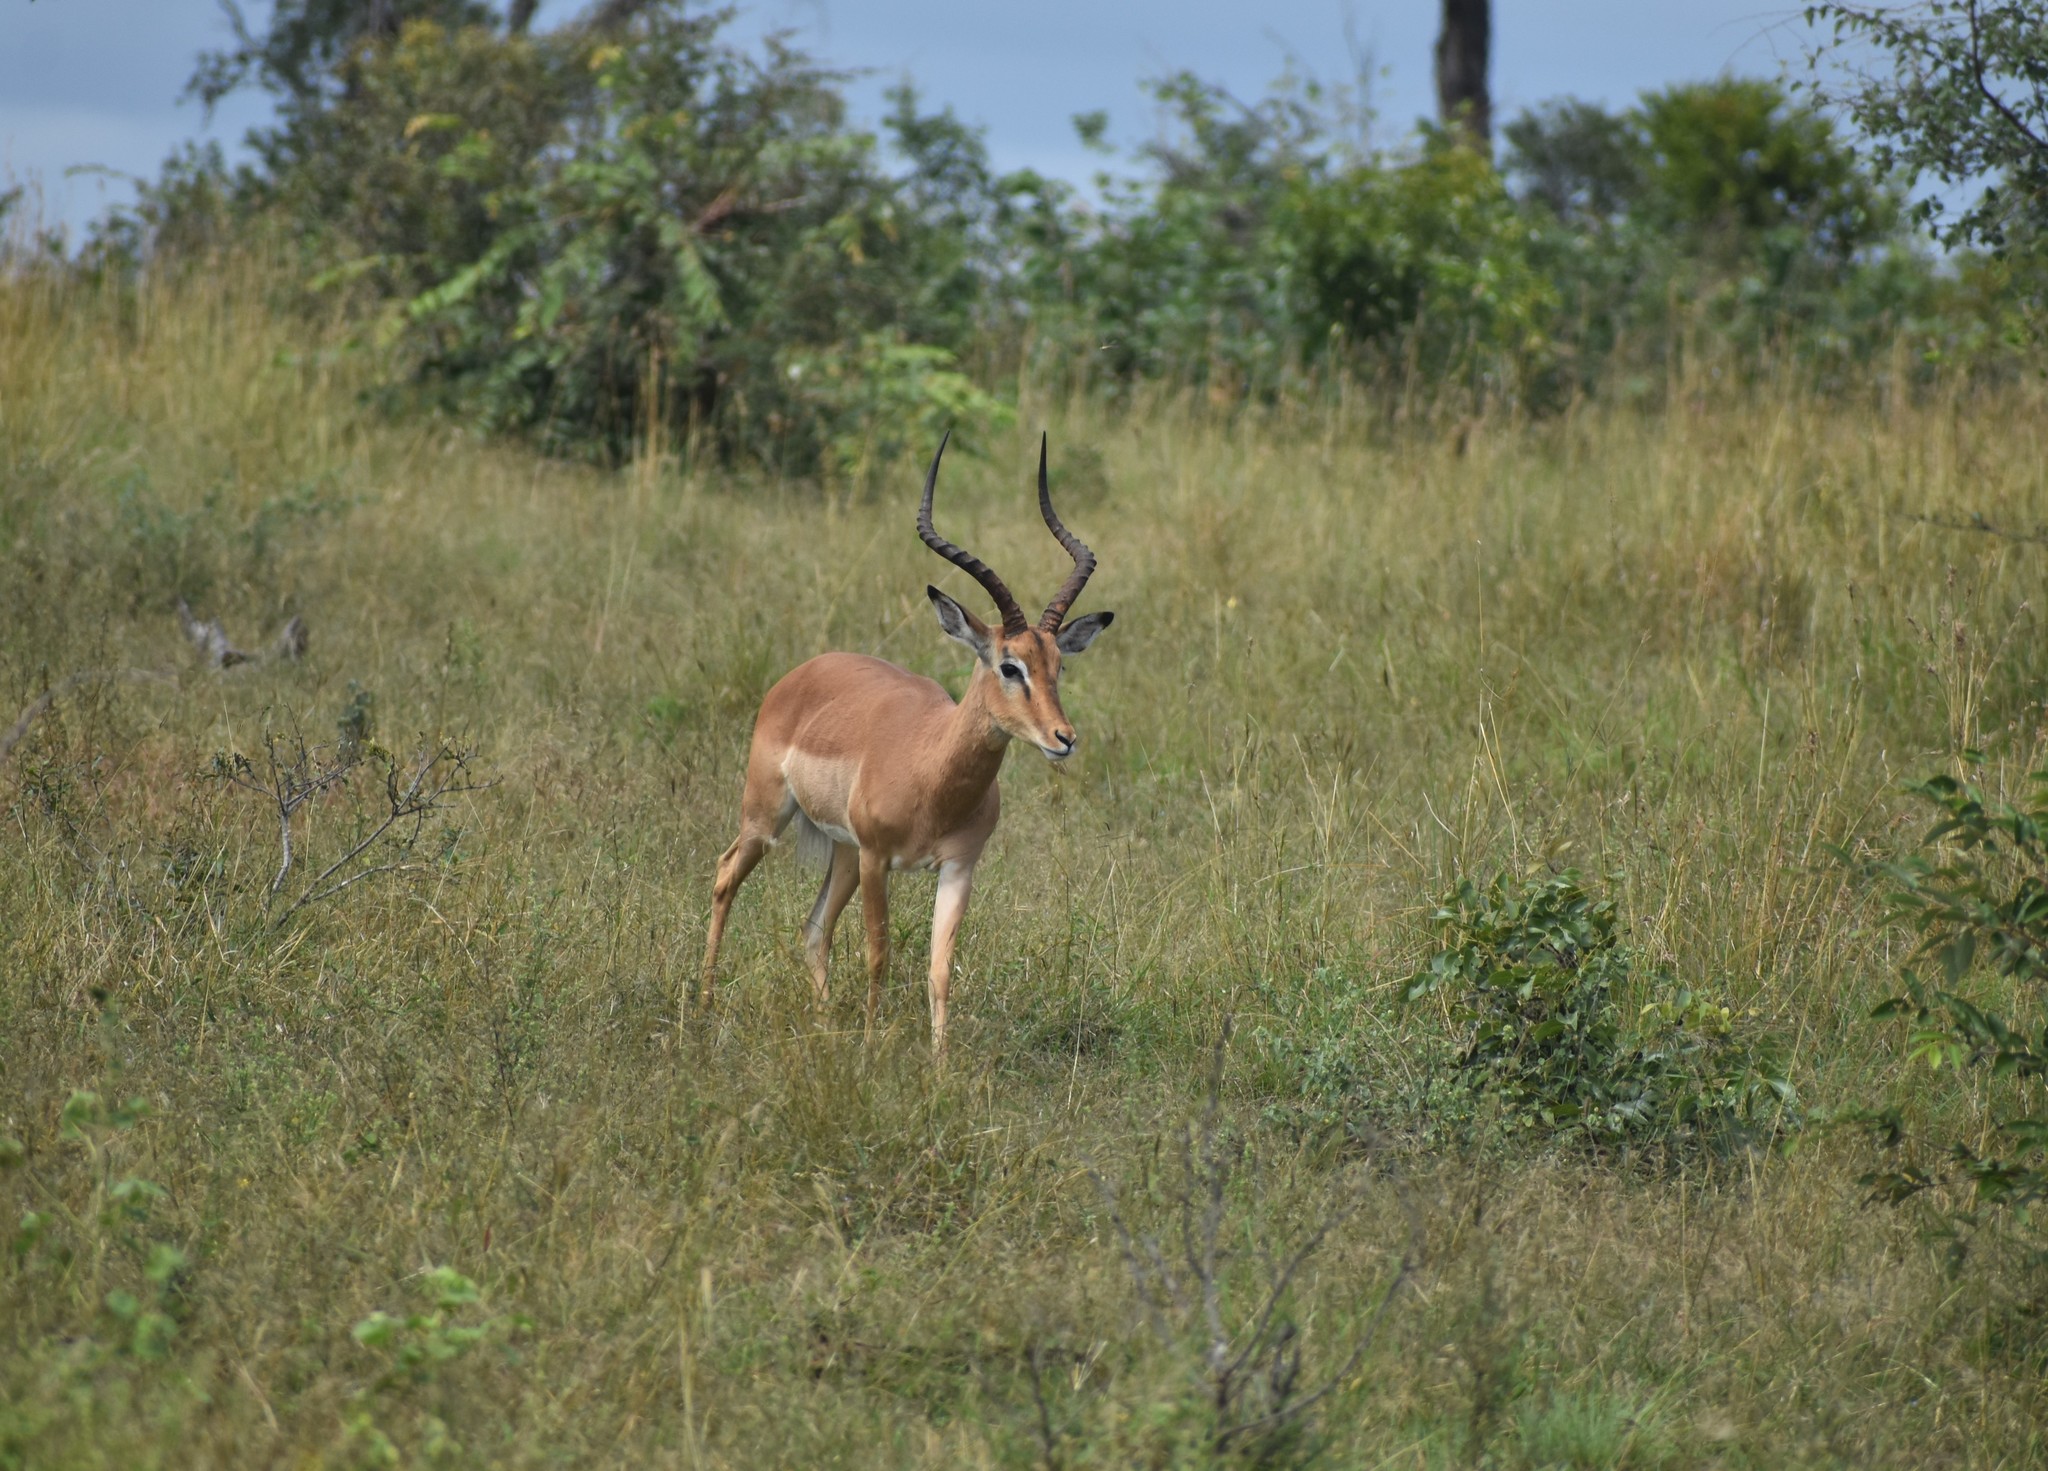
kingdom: Animalia
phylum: Chordata
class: Mammalia
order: Artiodactyla
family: Bovidae
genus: Aepyceros
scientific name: Aepyceros melampus
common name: Impala
